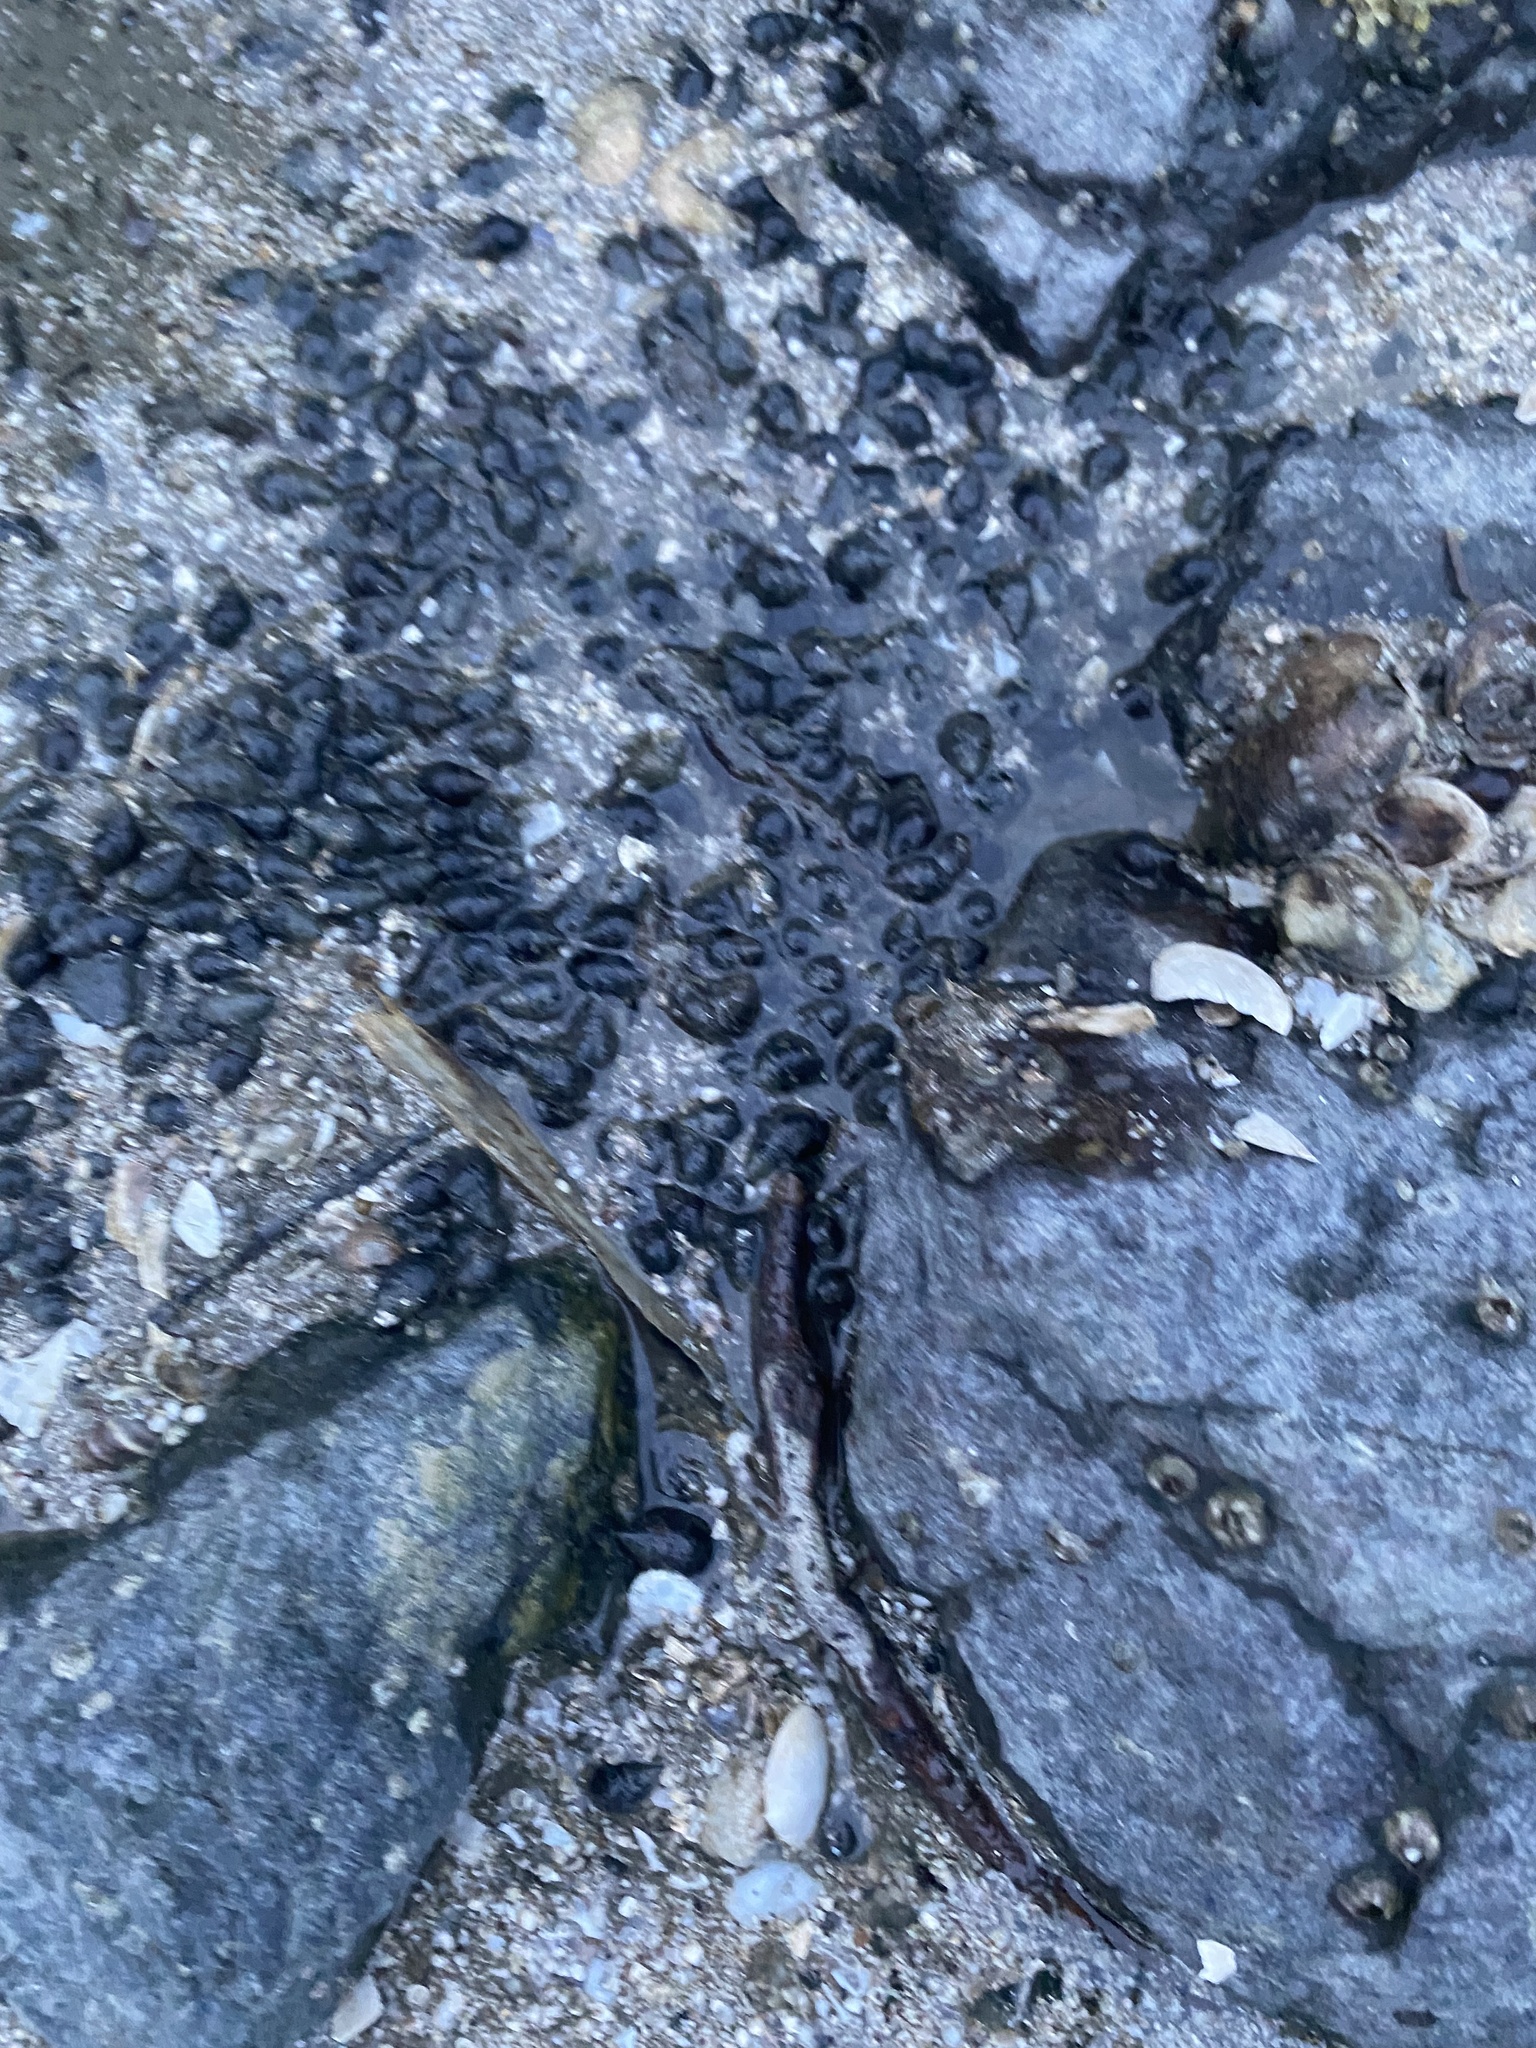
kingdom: Animalia
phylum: Mollusca
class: Gastropoda
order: Neogastropoda
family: Nassariidae
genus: Ilyanassa
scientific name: Ilyanassa obsoleta
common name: Eastern mudsnail
